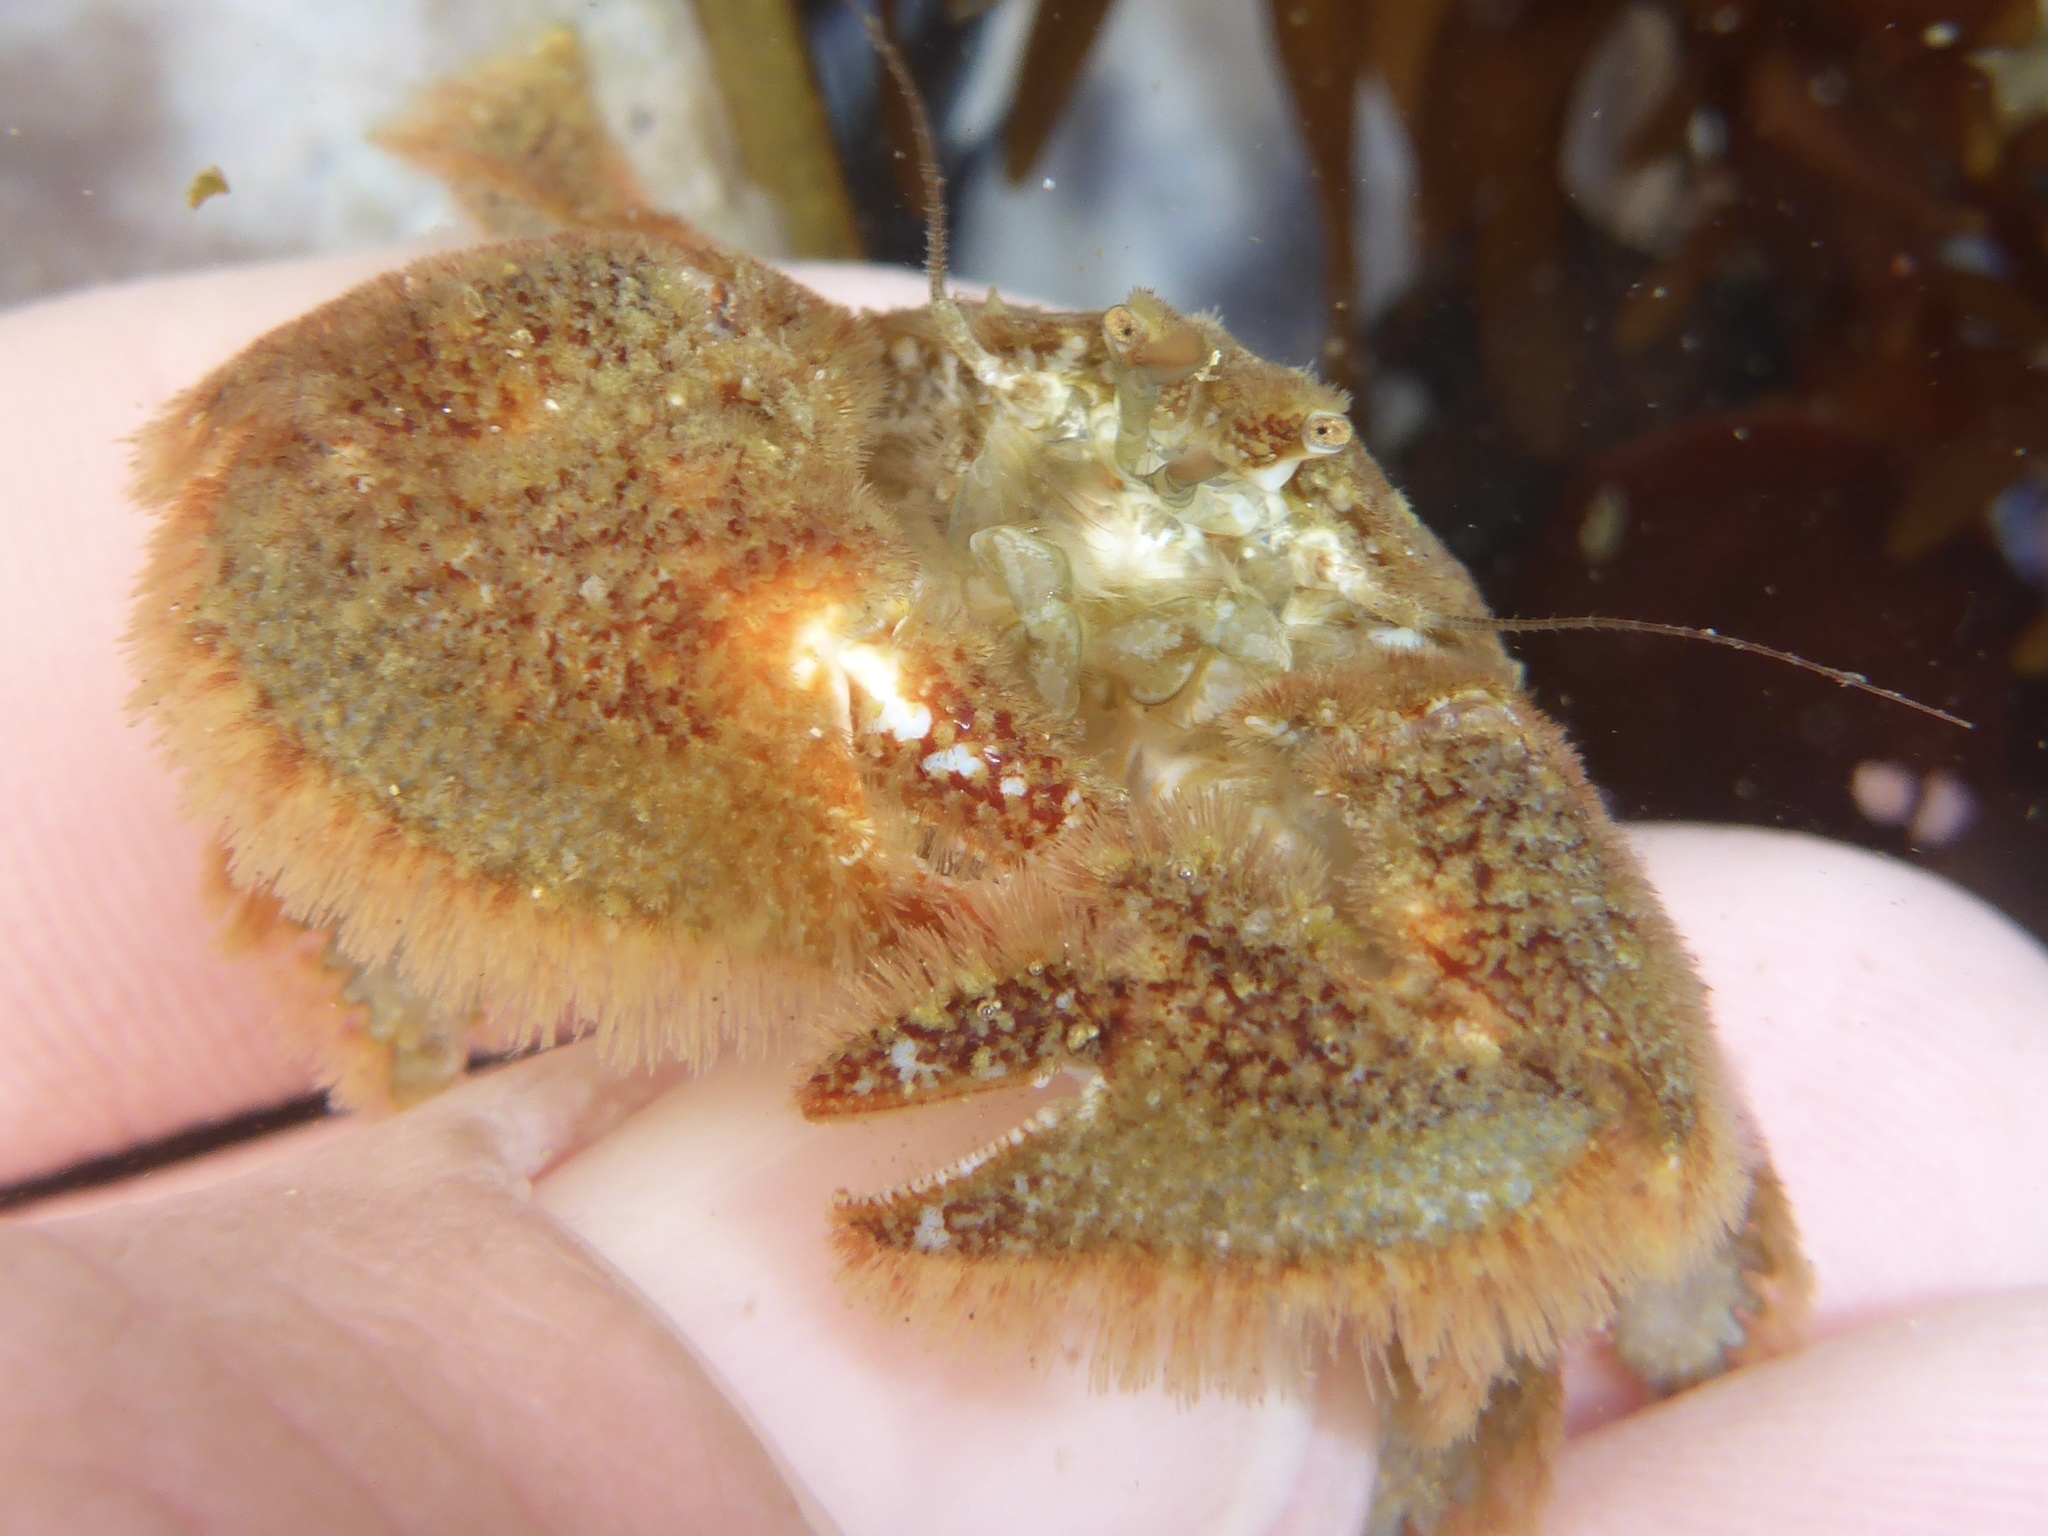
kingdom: Animalia
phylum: Arthropoda
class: Malacostraca
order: Decapoda
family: Hapalogastridae
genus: Hapalogaster
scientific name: Hapalogaster cavicauda
